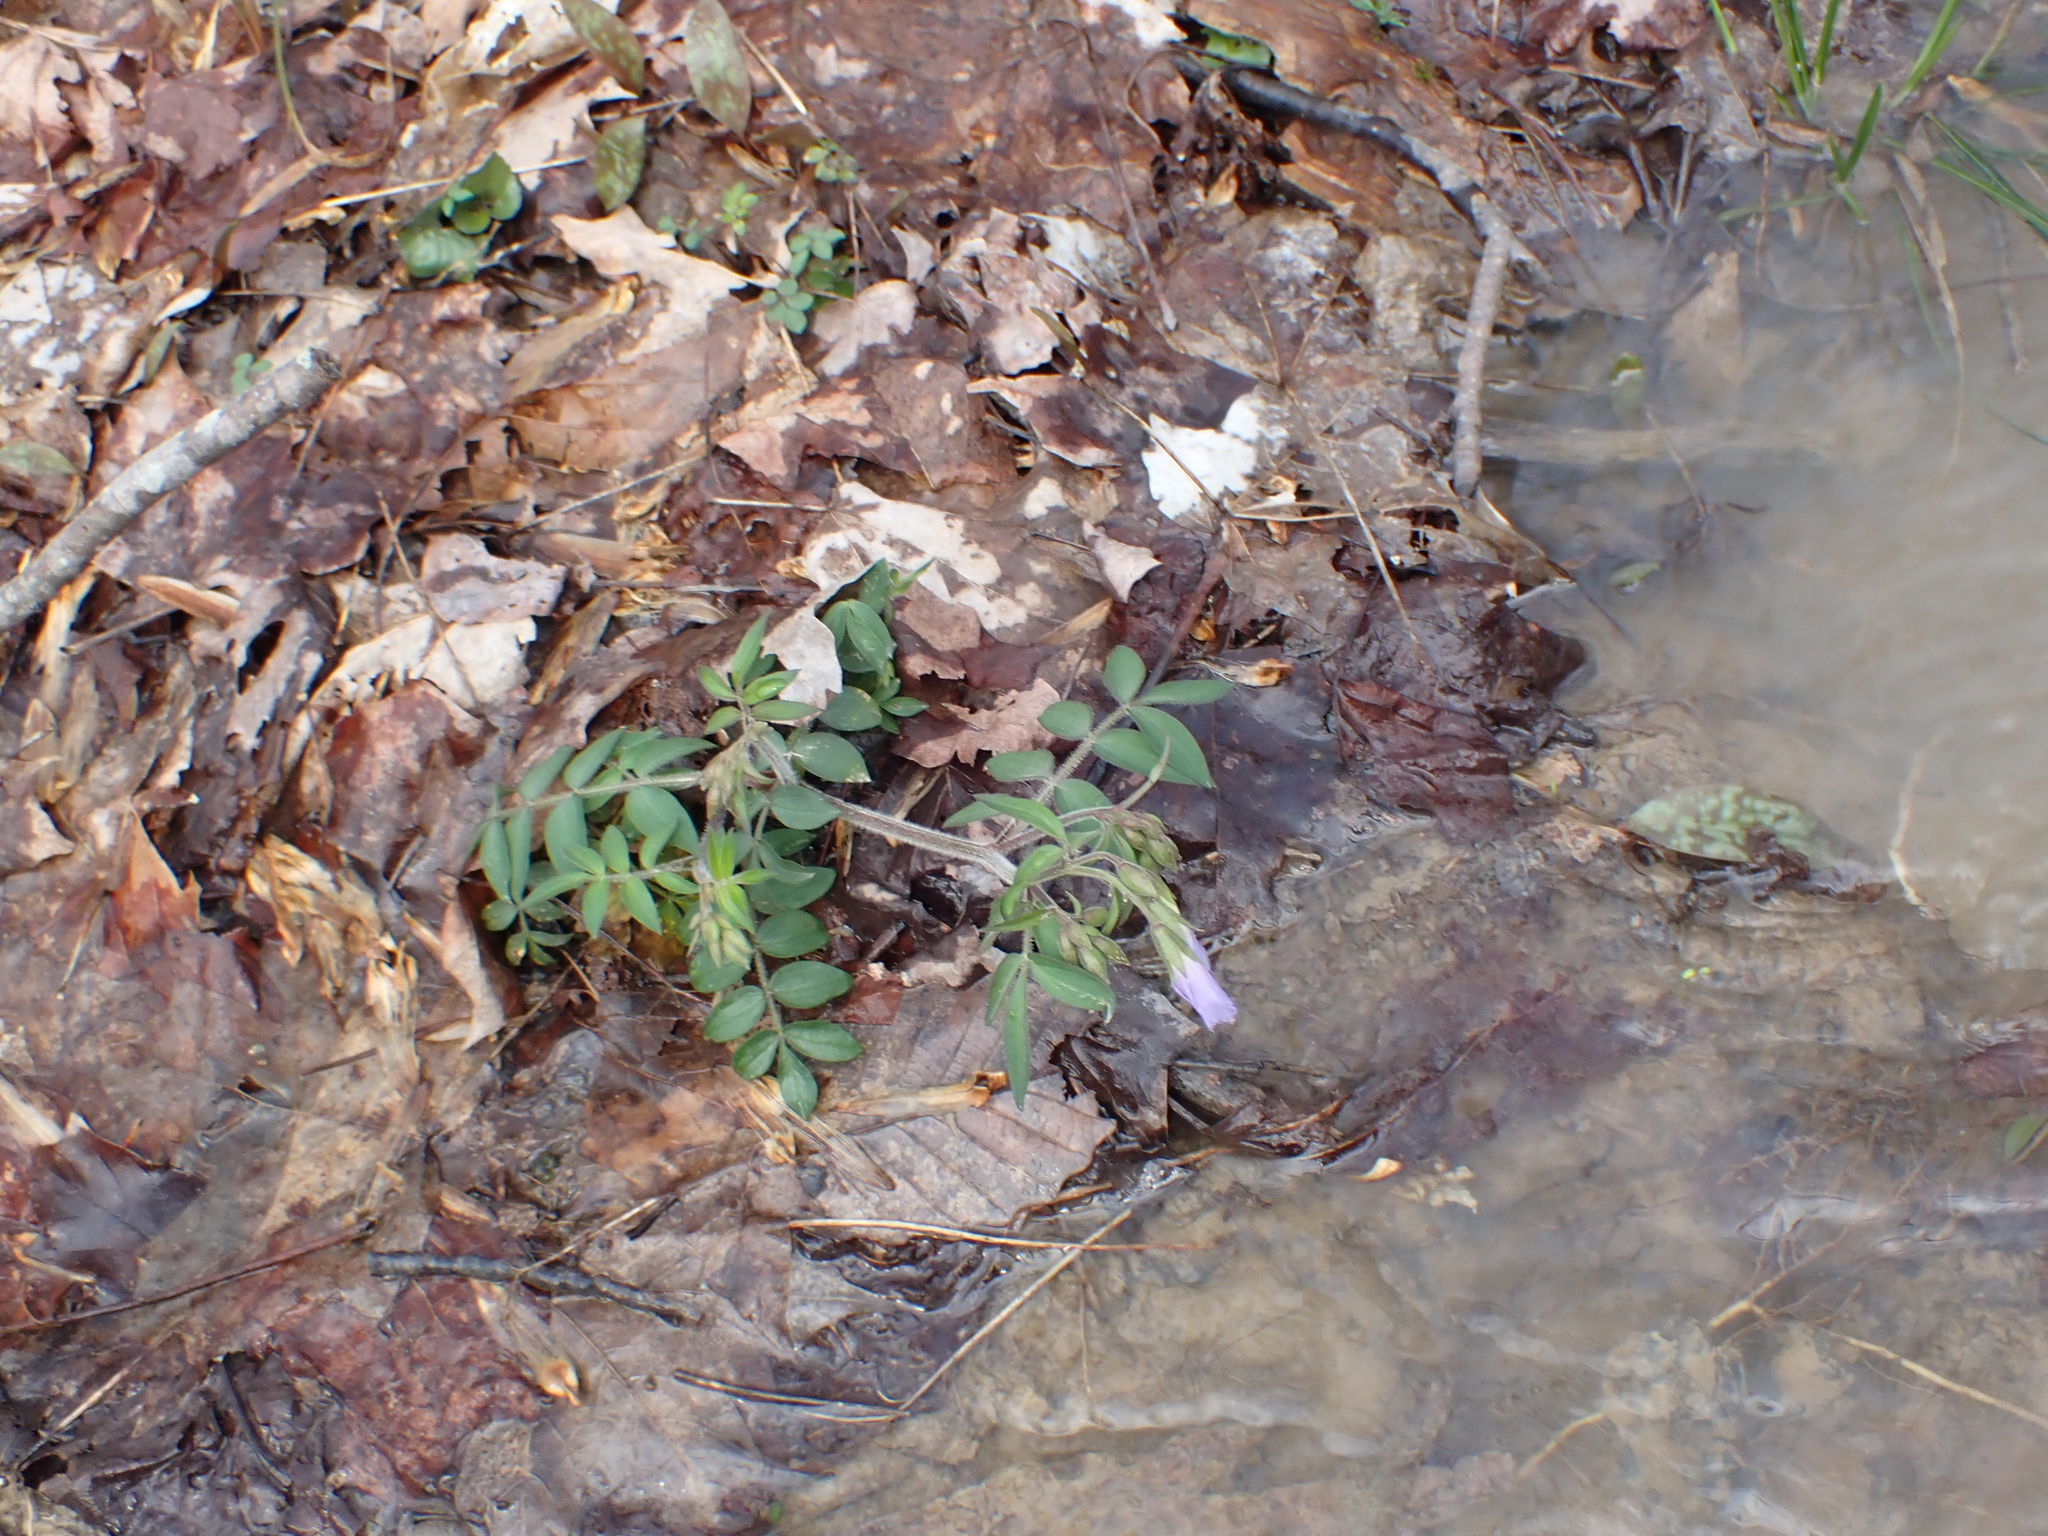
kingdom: Plantae
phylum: Tracheophyta
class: Magnoliopsida
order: Ericales
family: Polemoniaceae
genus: Polemonium
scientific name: Polemonium reptans
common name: Creeping jacob's-ladder
